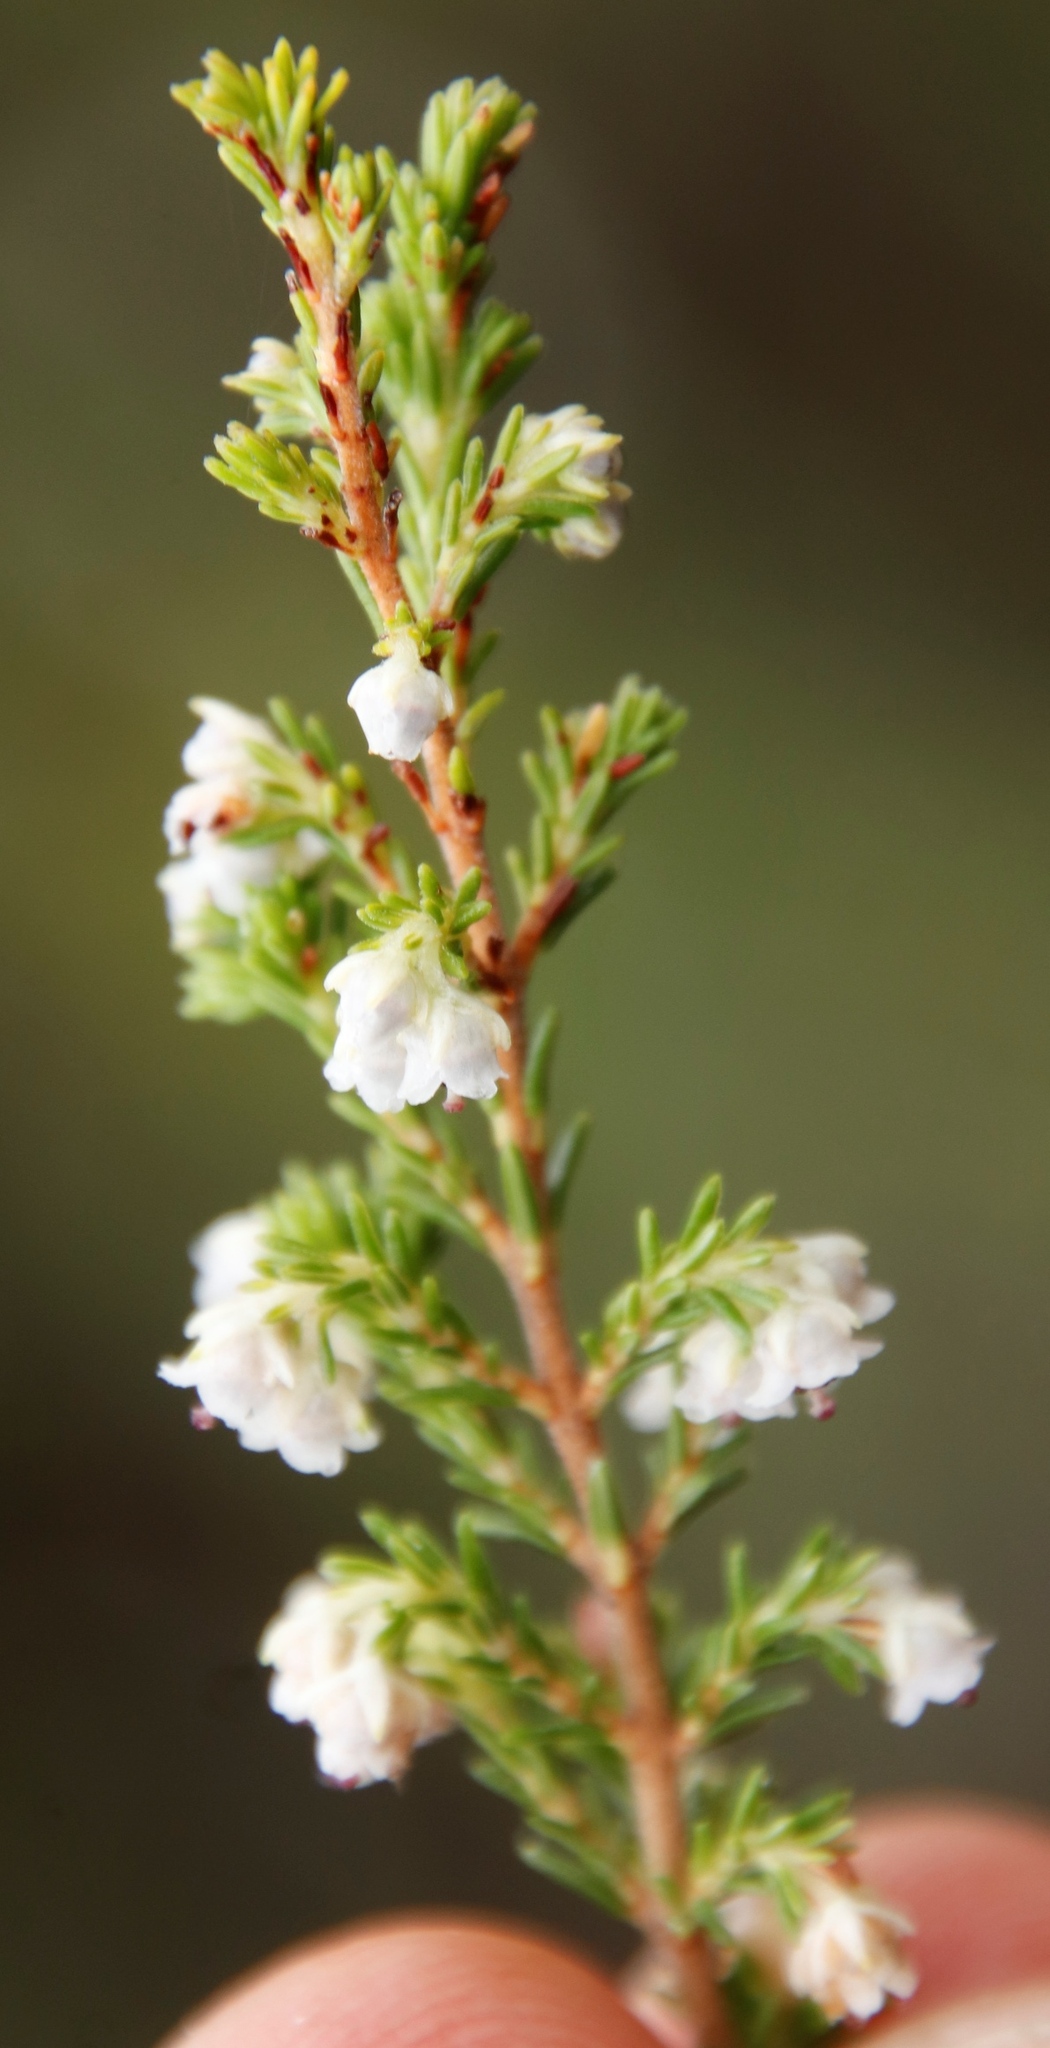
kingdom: Plantae
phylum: Tracheophyta
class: Magnoliopsida
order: Ericales
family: Ericaceae
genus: Erica
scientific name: Erica zwartbergensis
